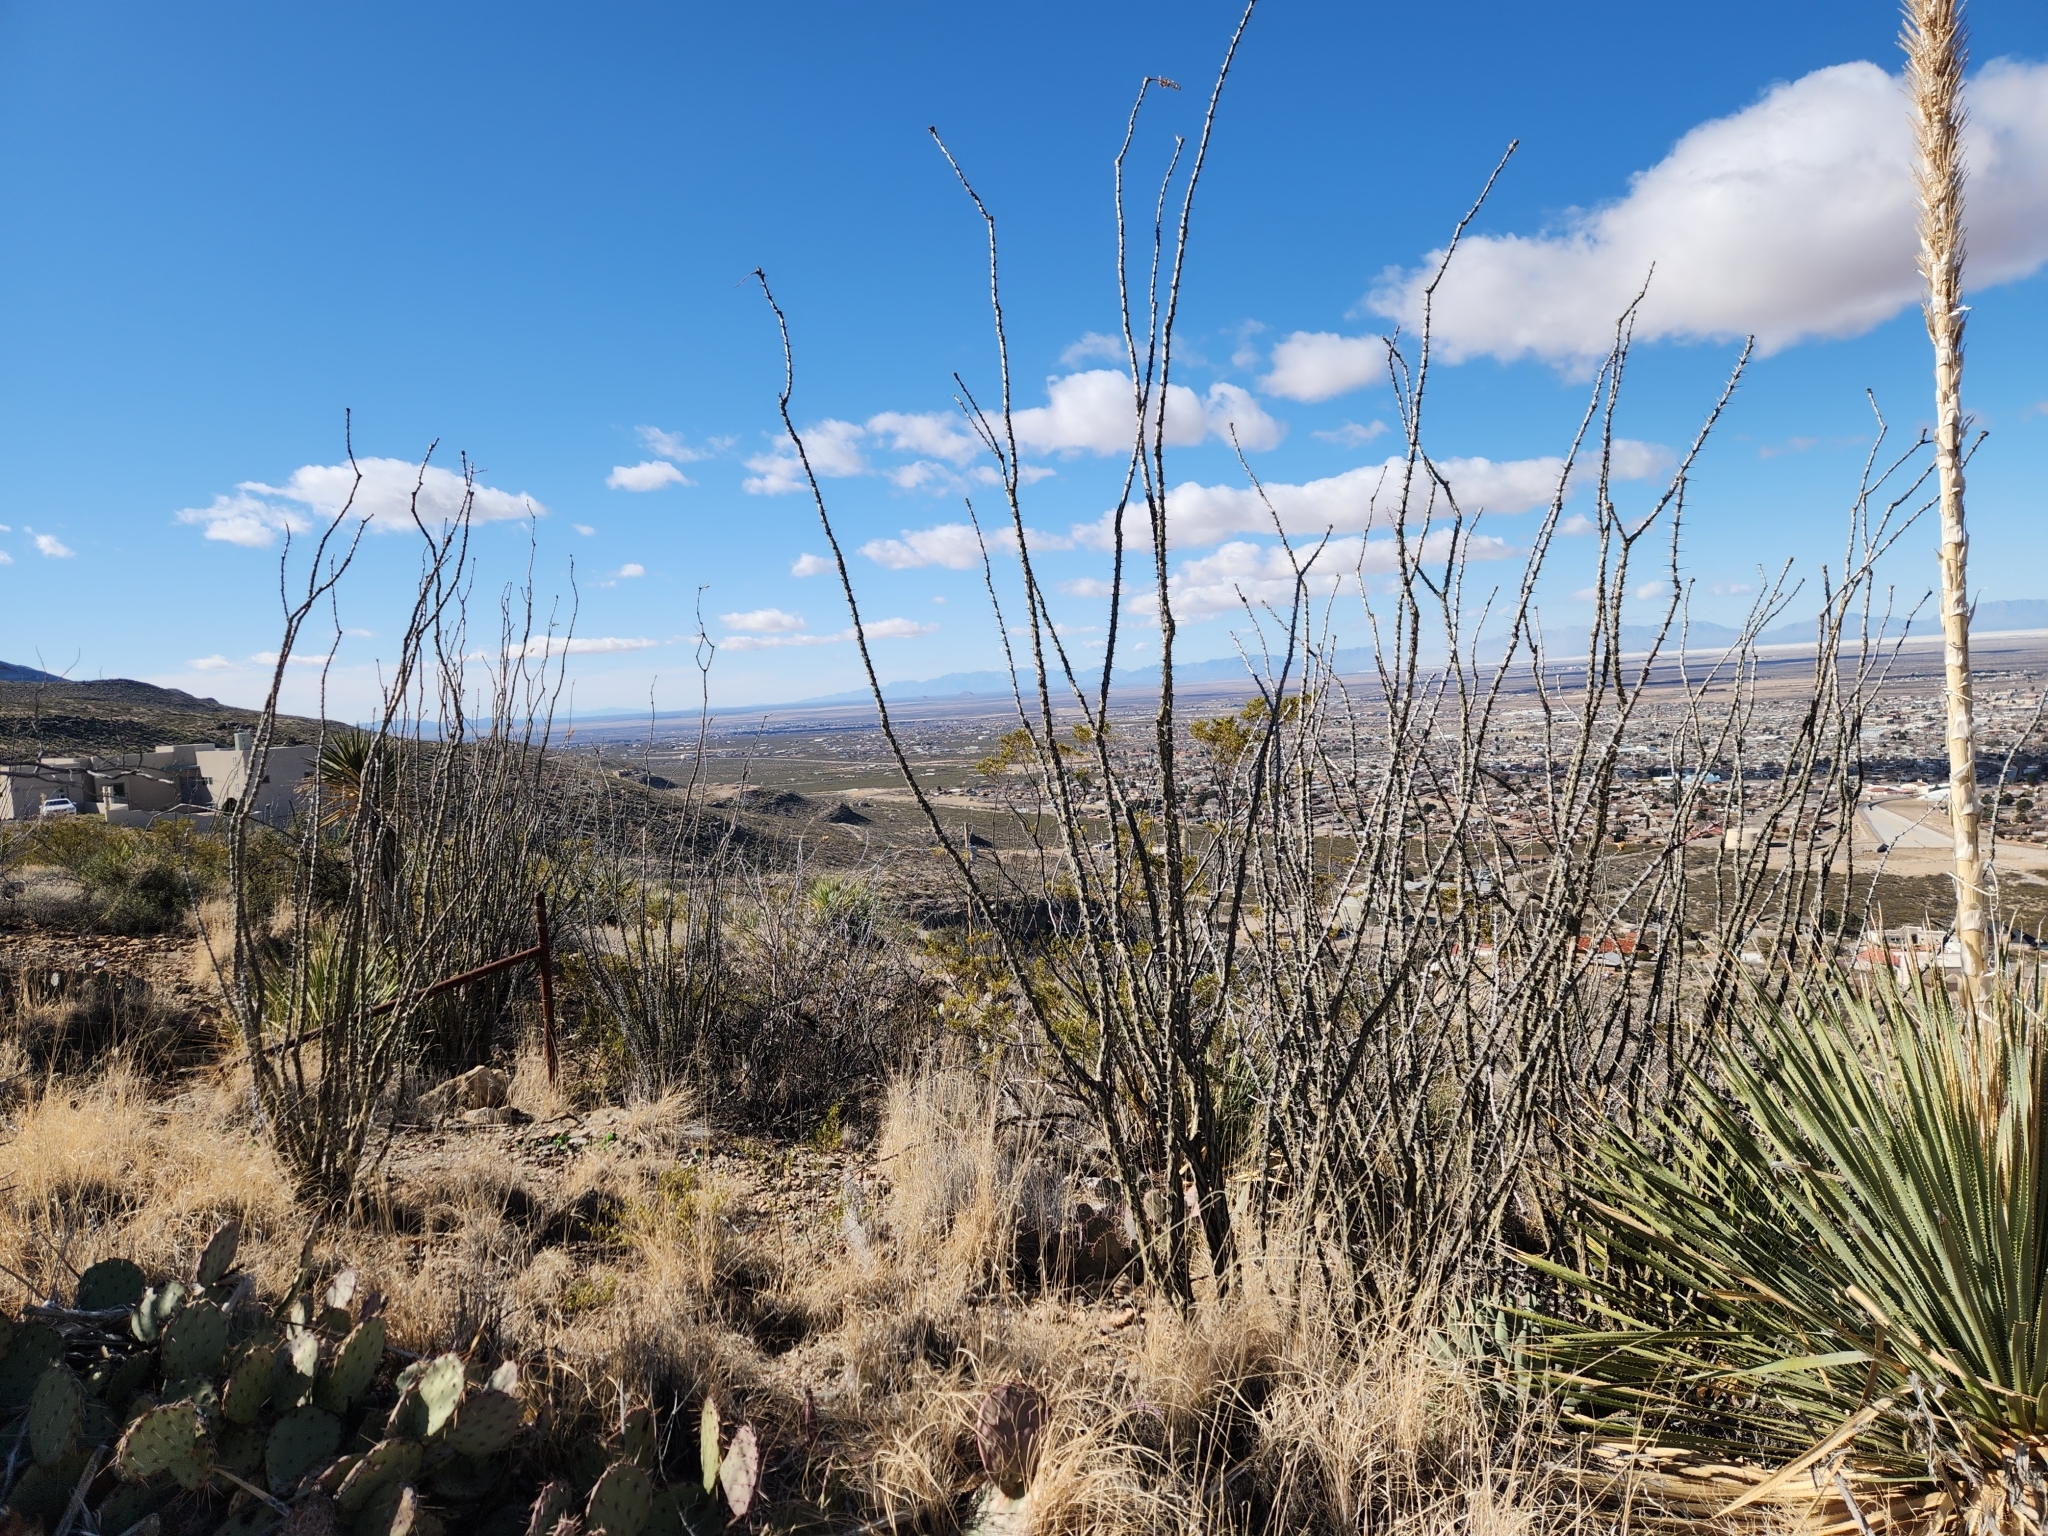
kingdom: Plantae
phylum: Tracheophyta
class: Magnoliopsida
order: Ericales
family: Fouquieriaceae
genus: Fouquieria
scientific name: Fouquieria splendens
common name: Vine-cactus
